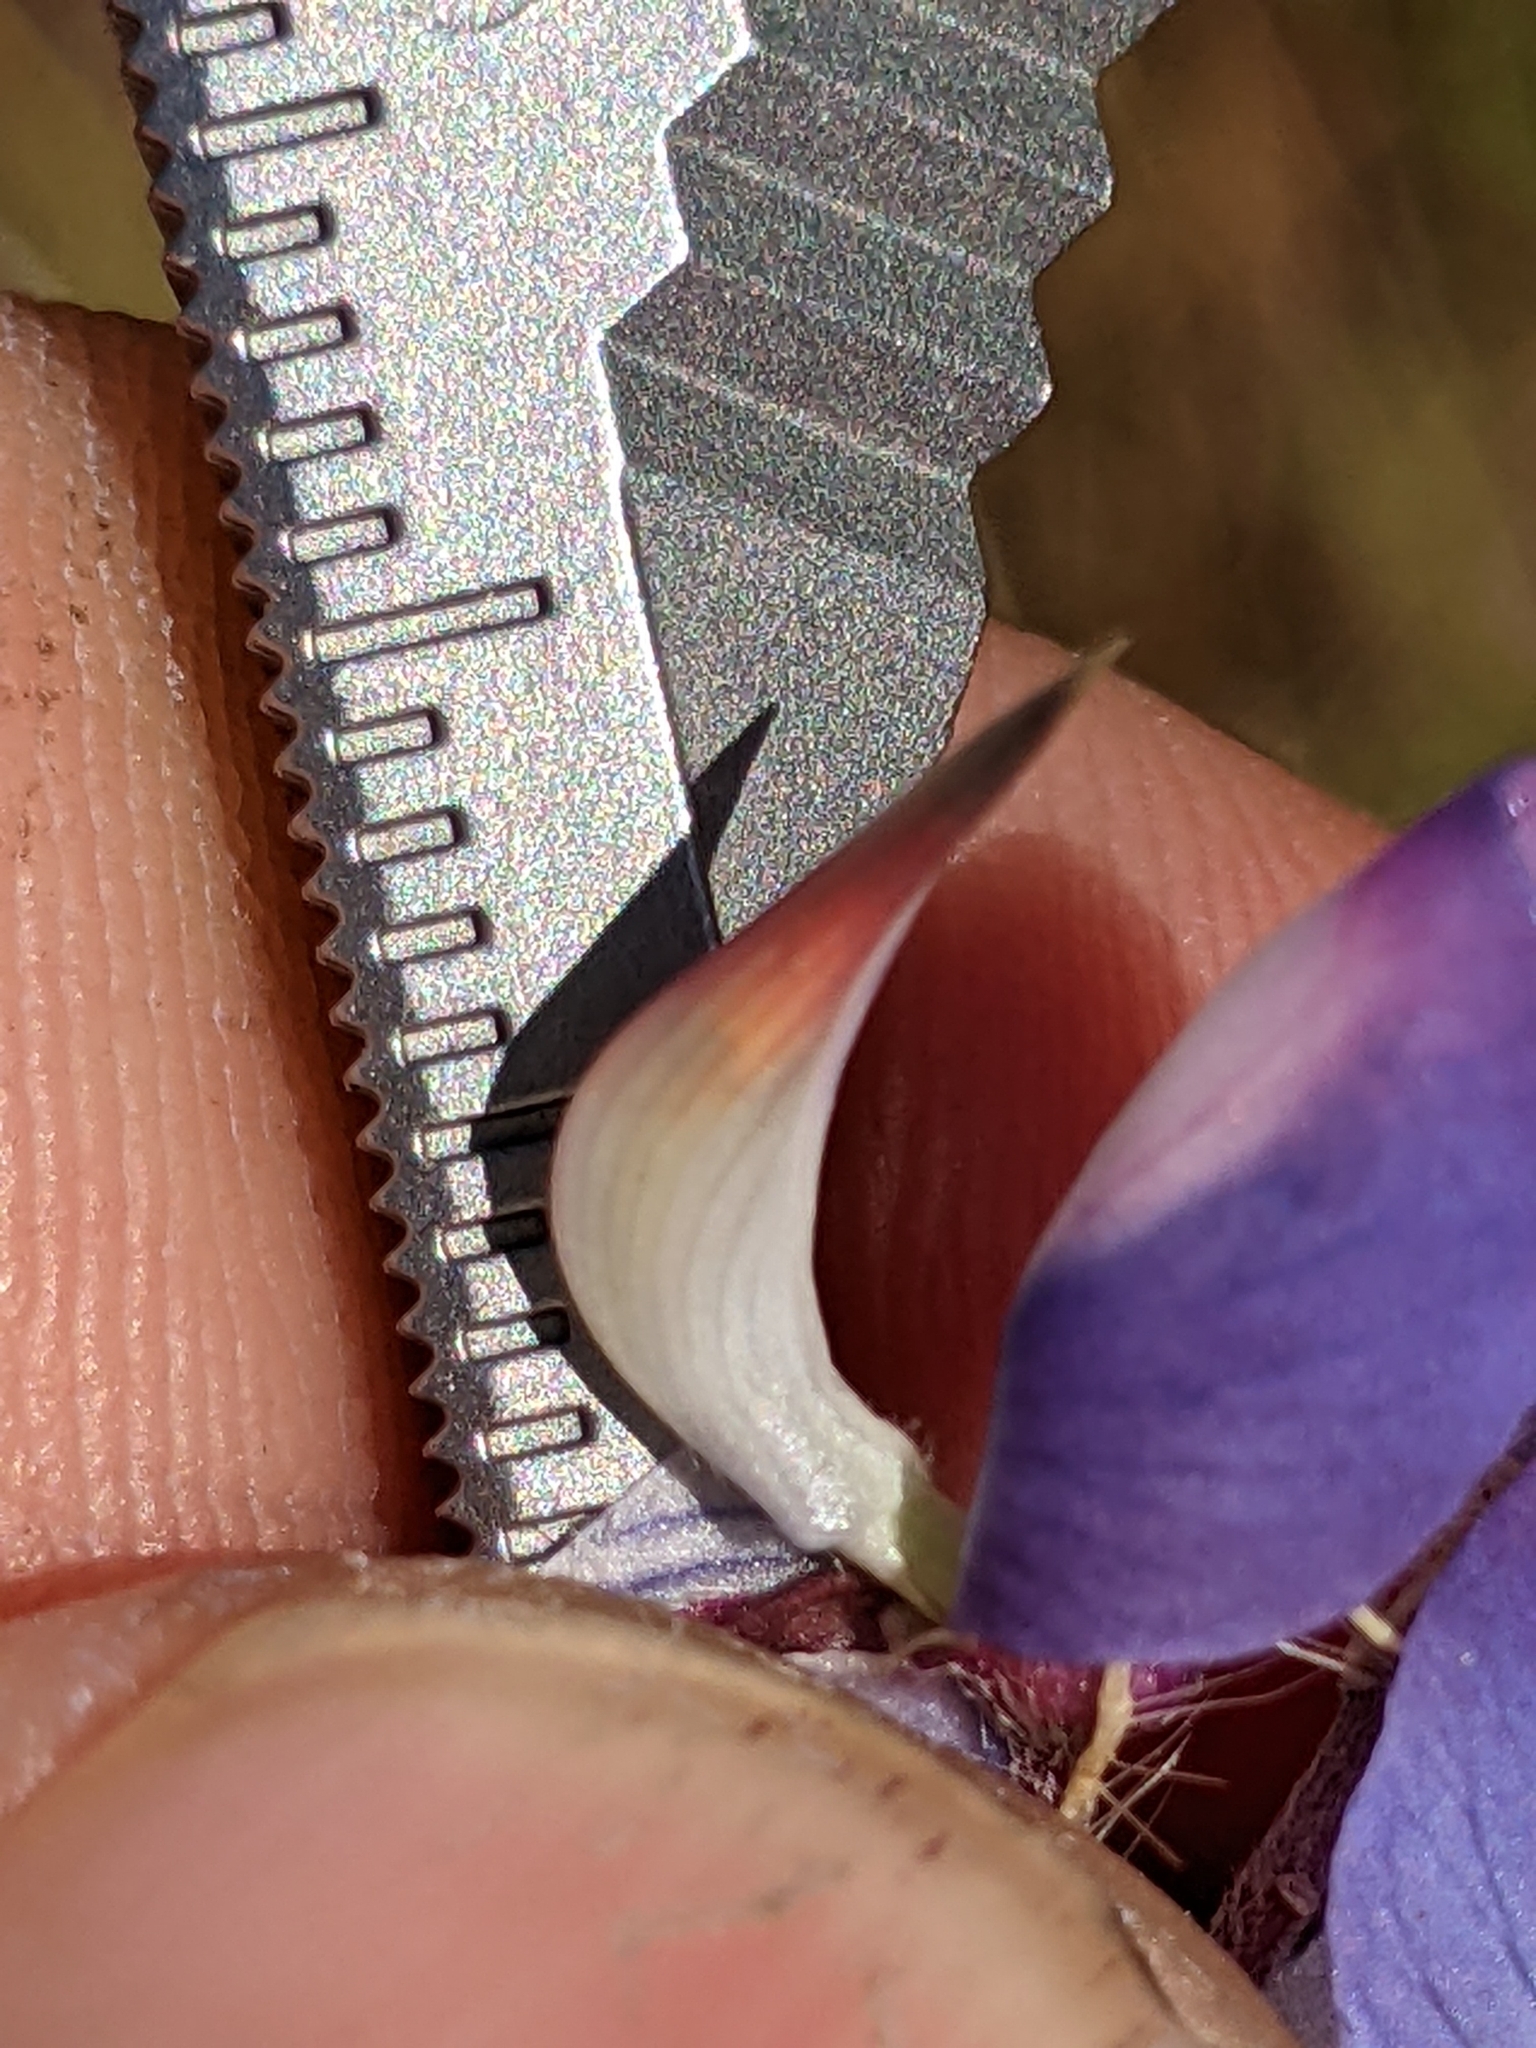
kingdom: Plantae
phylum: Tracheophyta
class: Magnoliopsida
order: Fabales
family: Fabaceae
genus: Lupinus
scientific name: Lupinus benthamii
